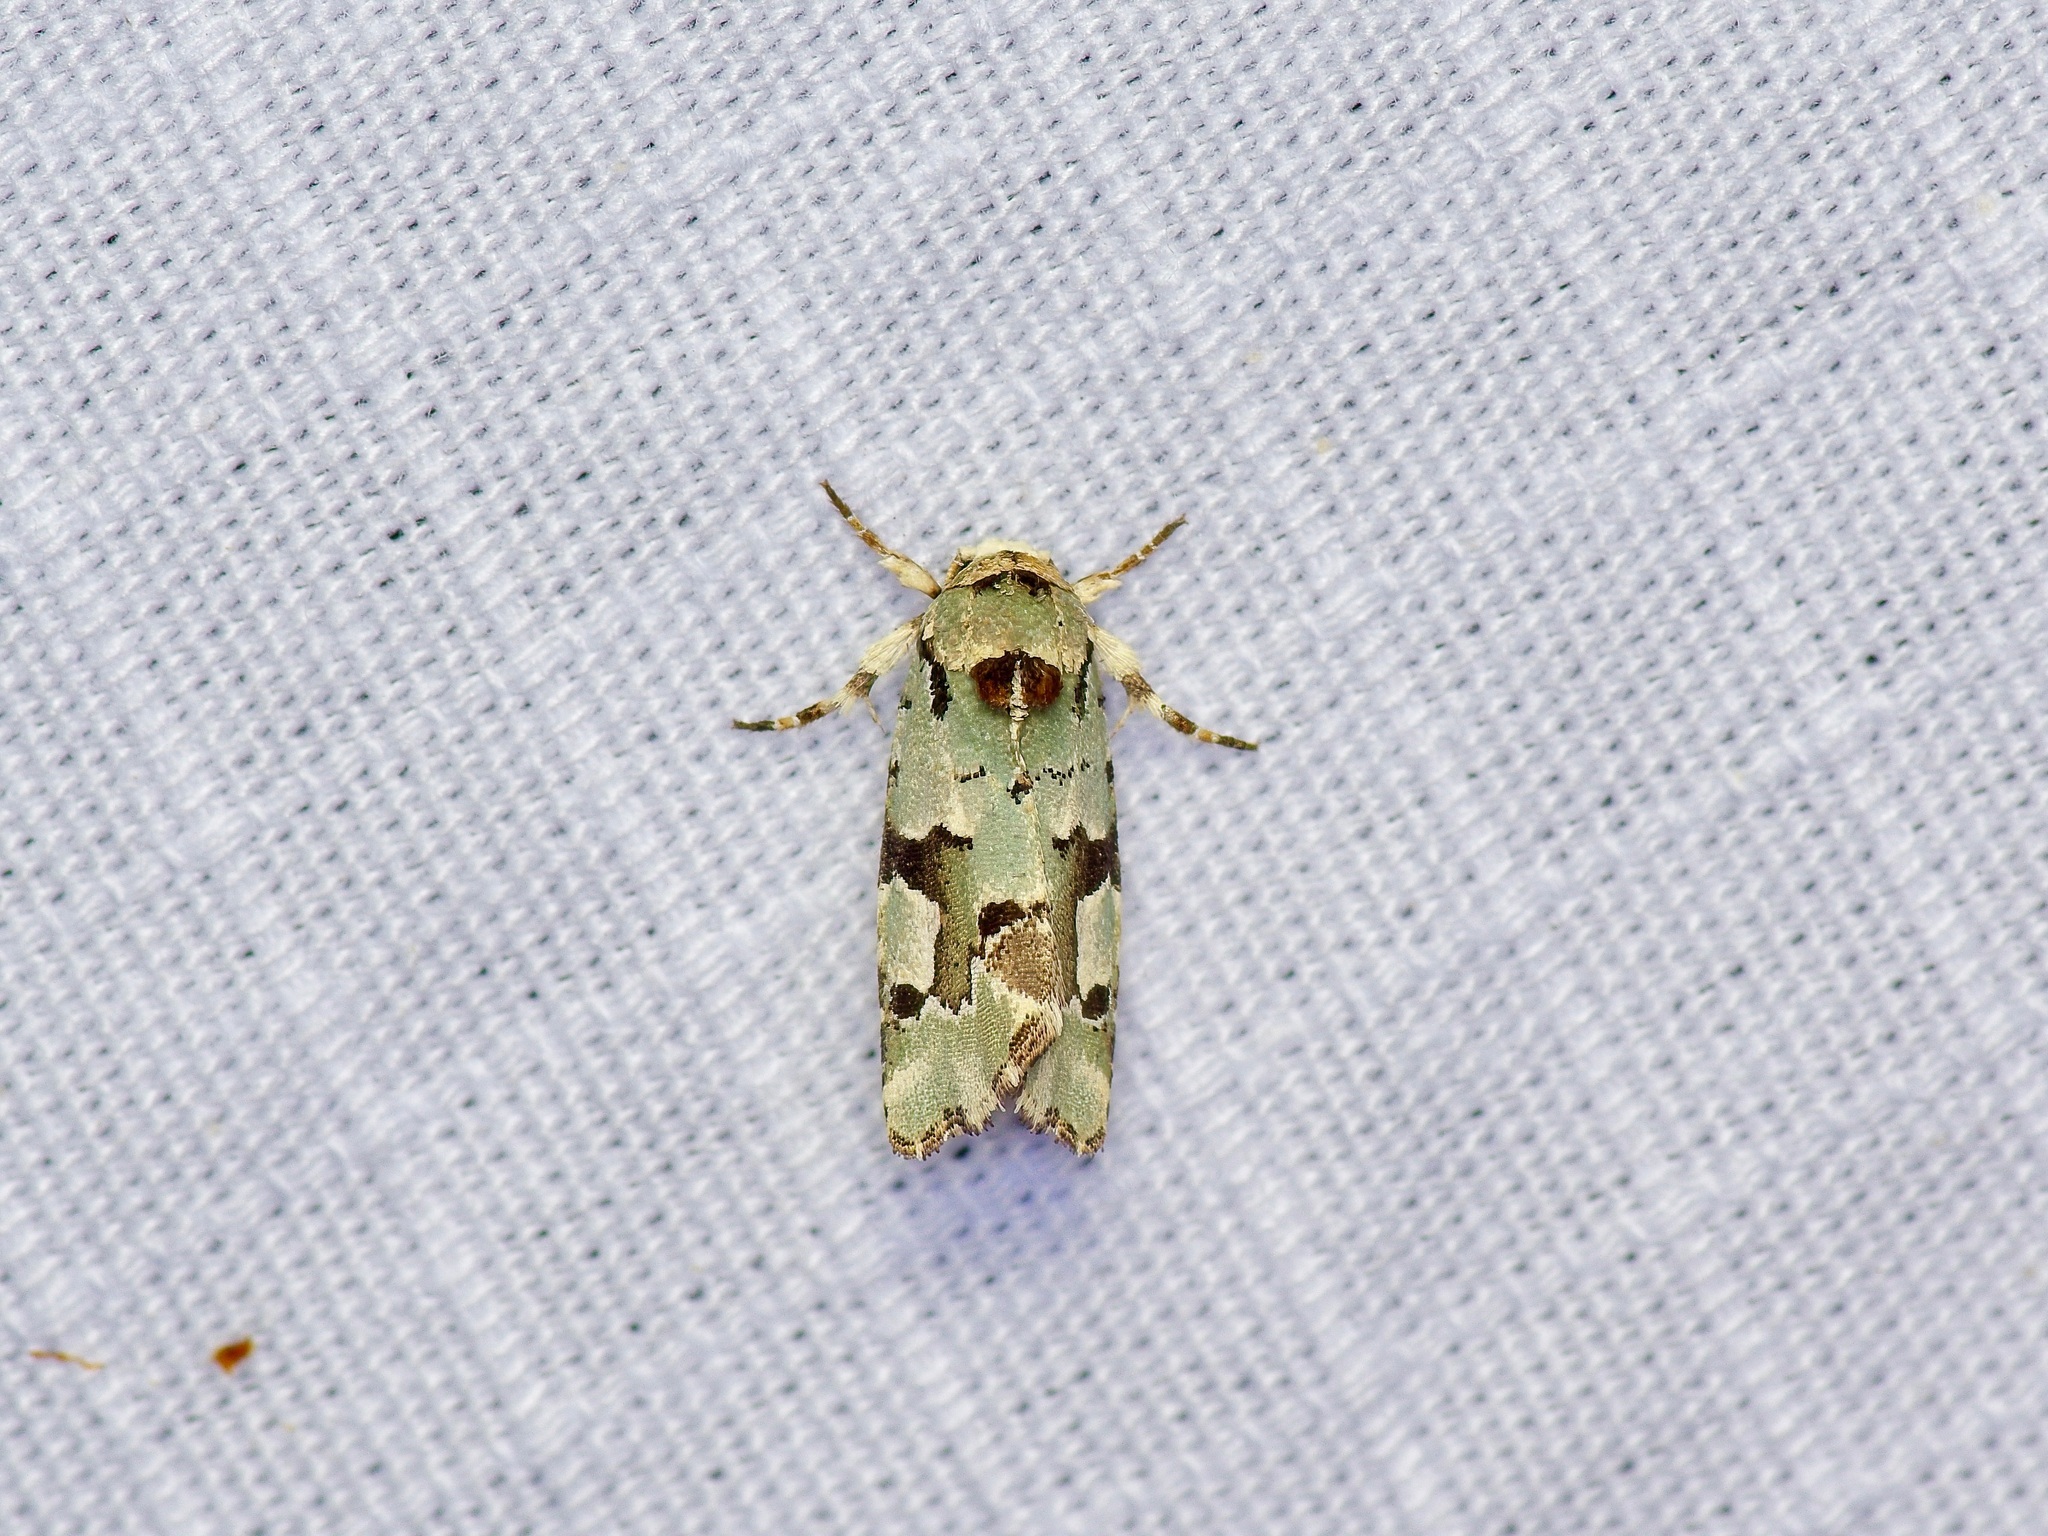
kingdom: Animalia
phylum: Arthropoda
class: Insecta
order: Lepidoptera
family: Noctuidae
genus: Emarginea
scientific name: Emarginea percara
